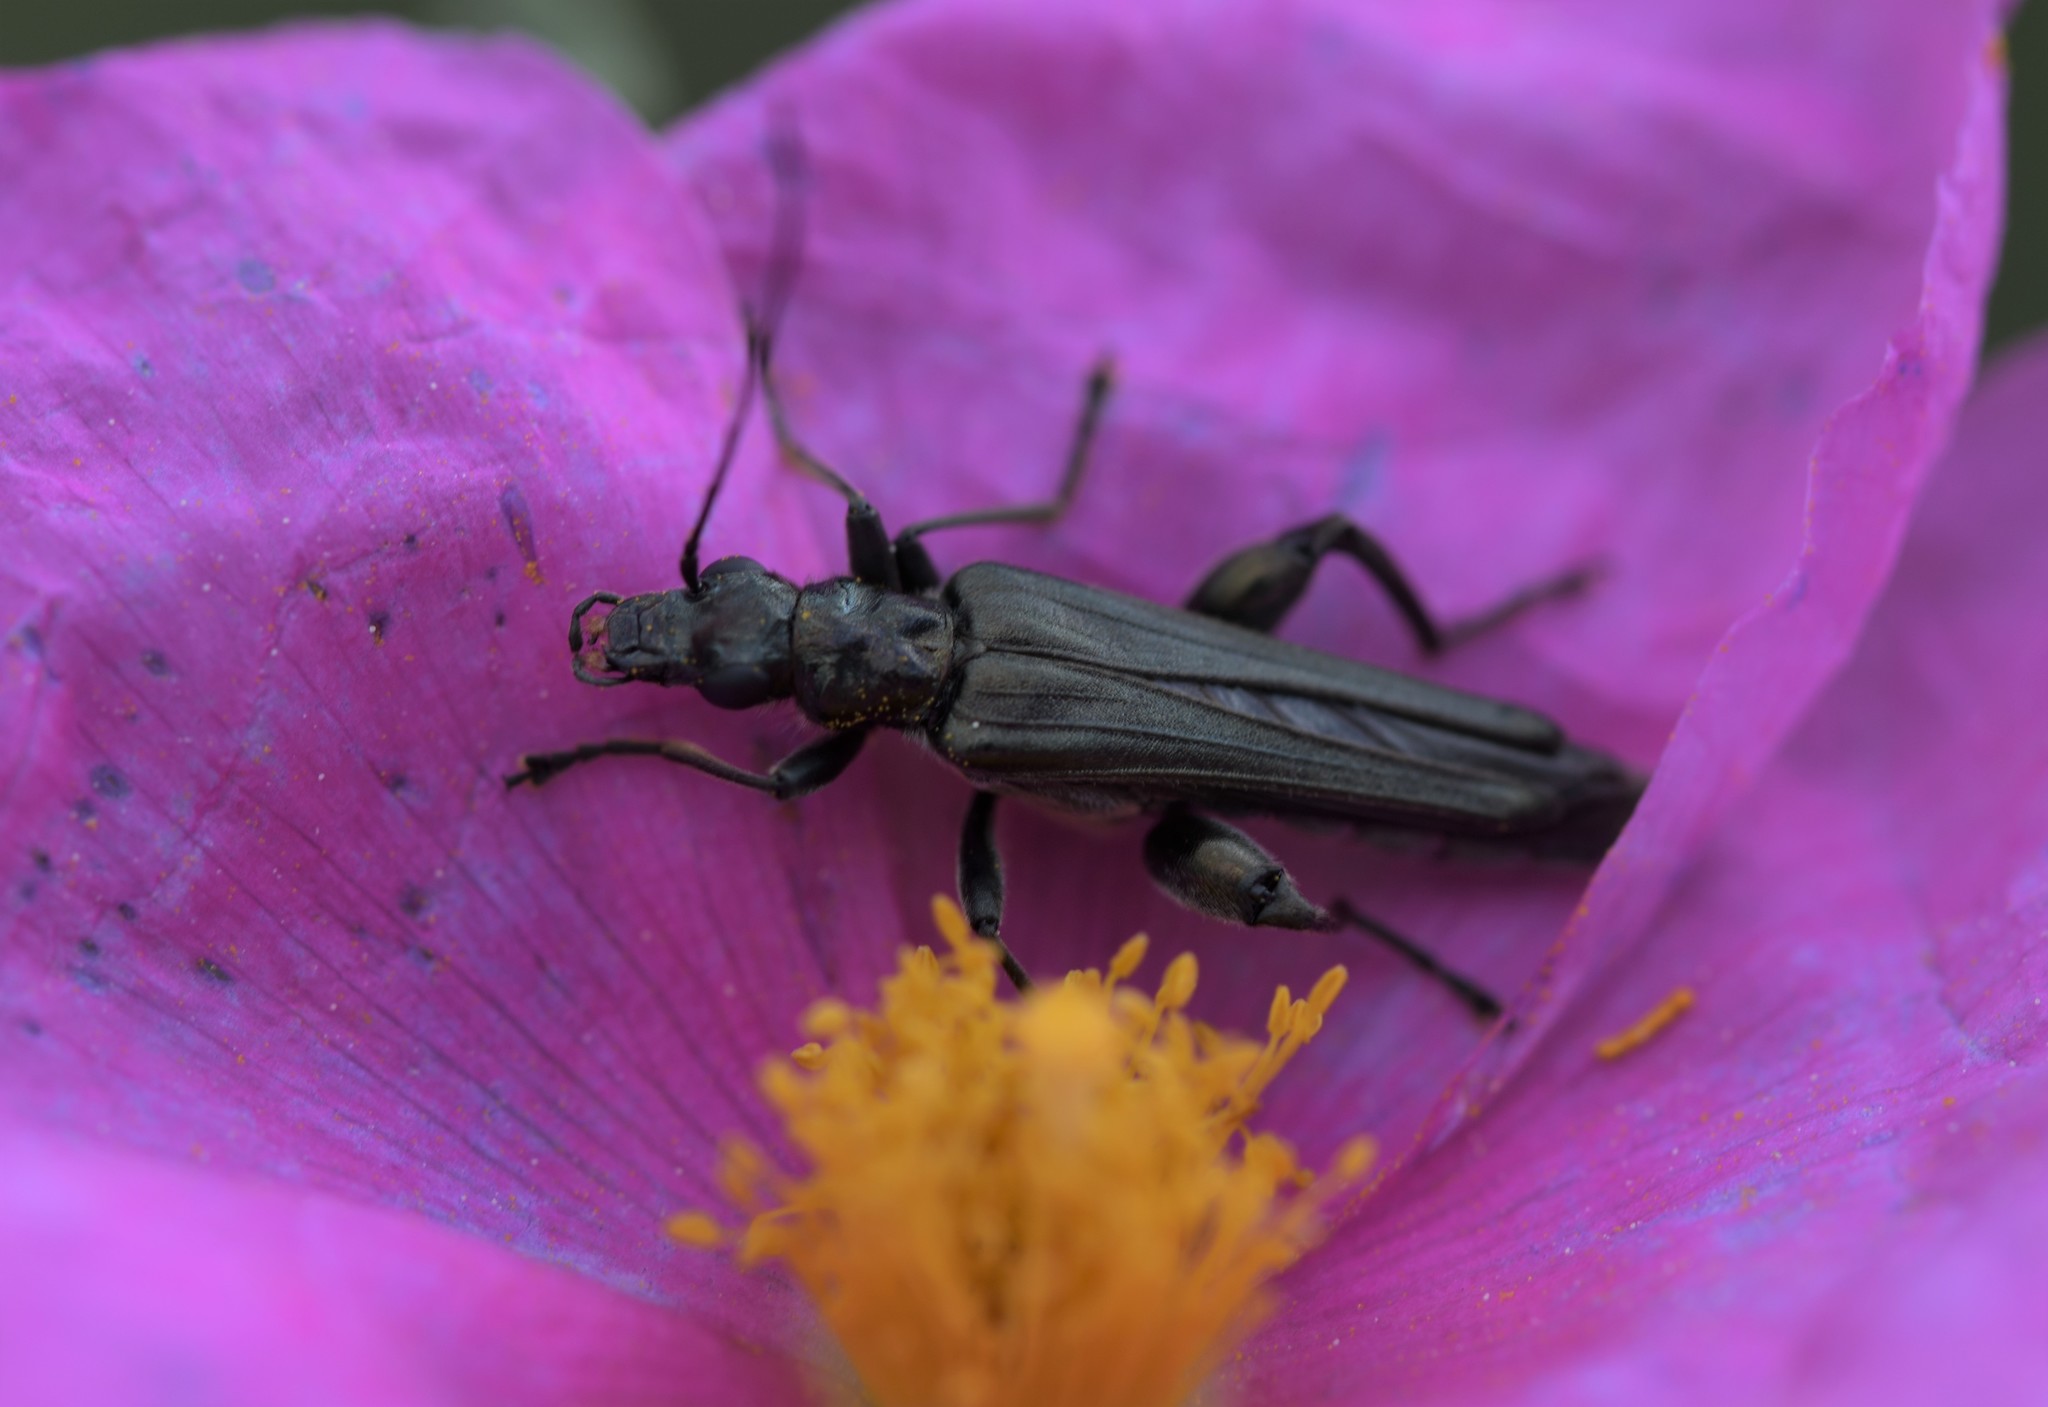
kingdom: Animalia
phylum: Arthropoda
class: Insecta
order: Coleoptera
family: Oedemeridae
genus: Oedemera
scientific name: Oedemera unicolor
